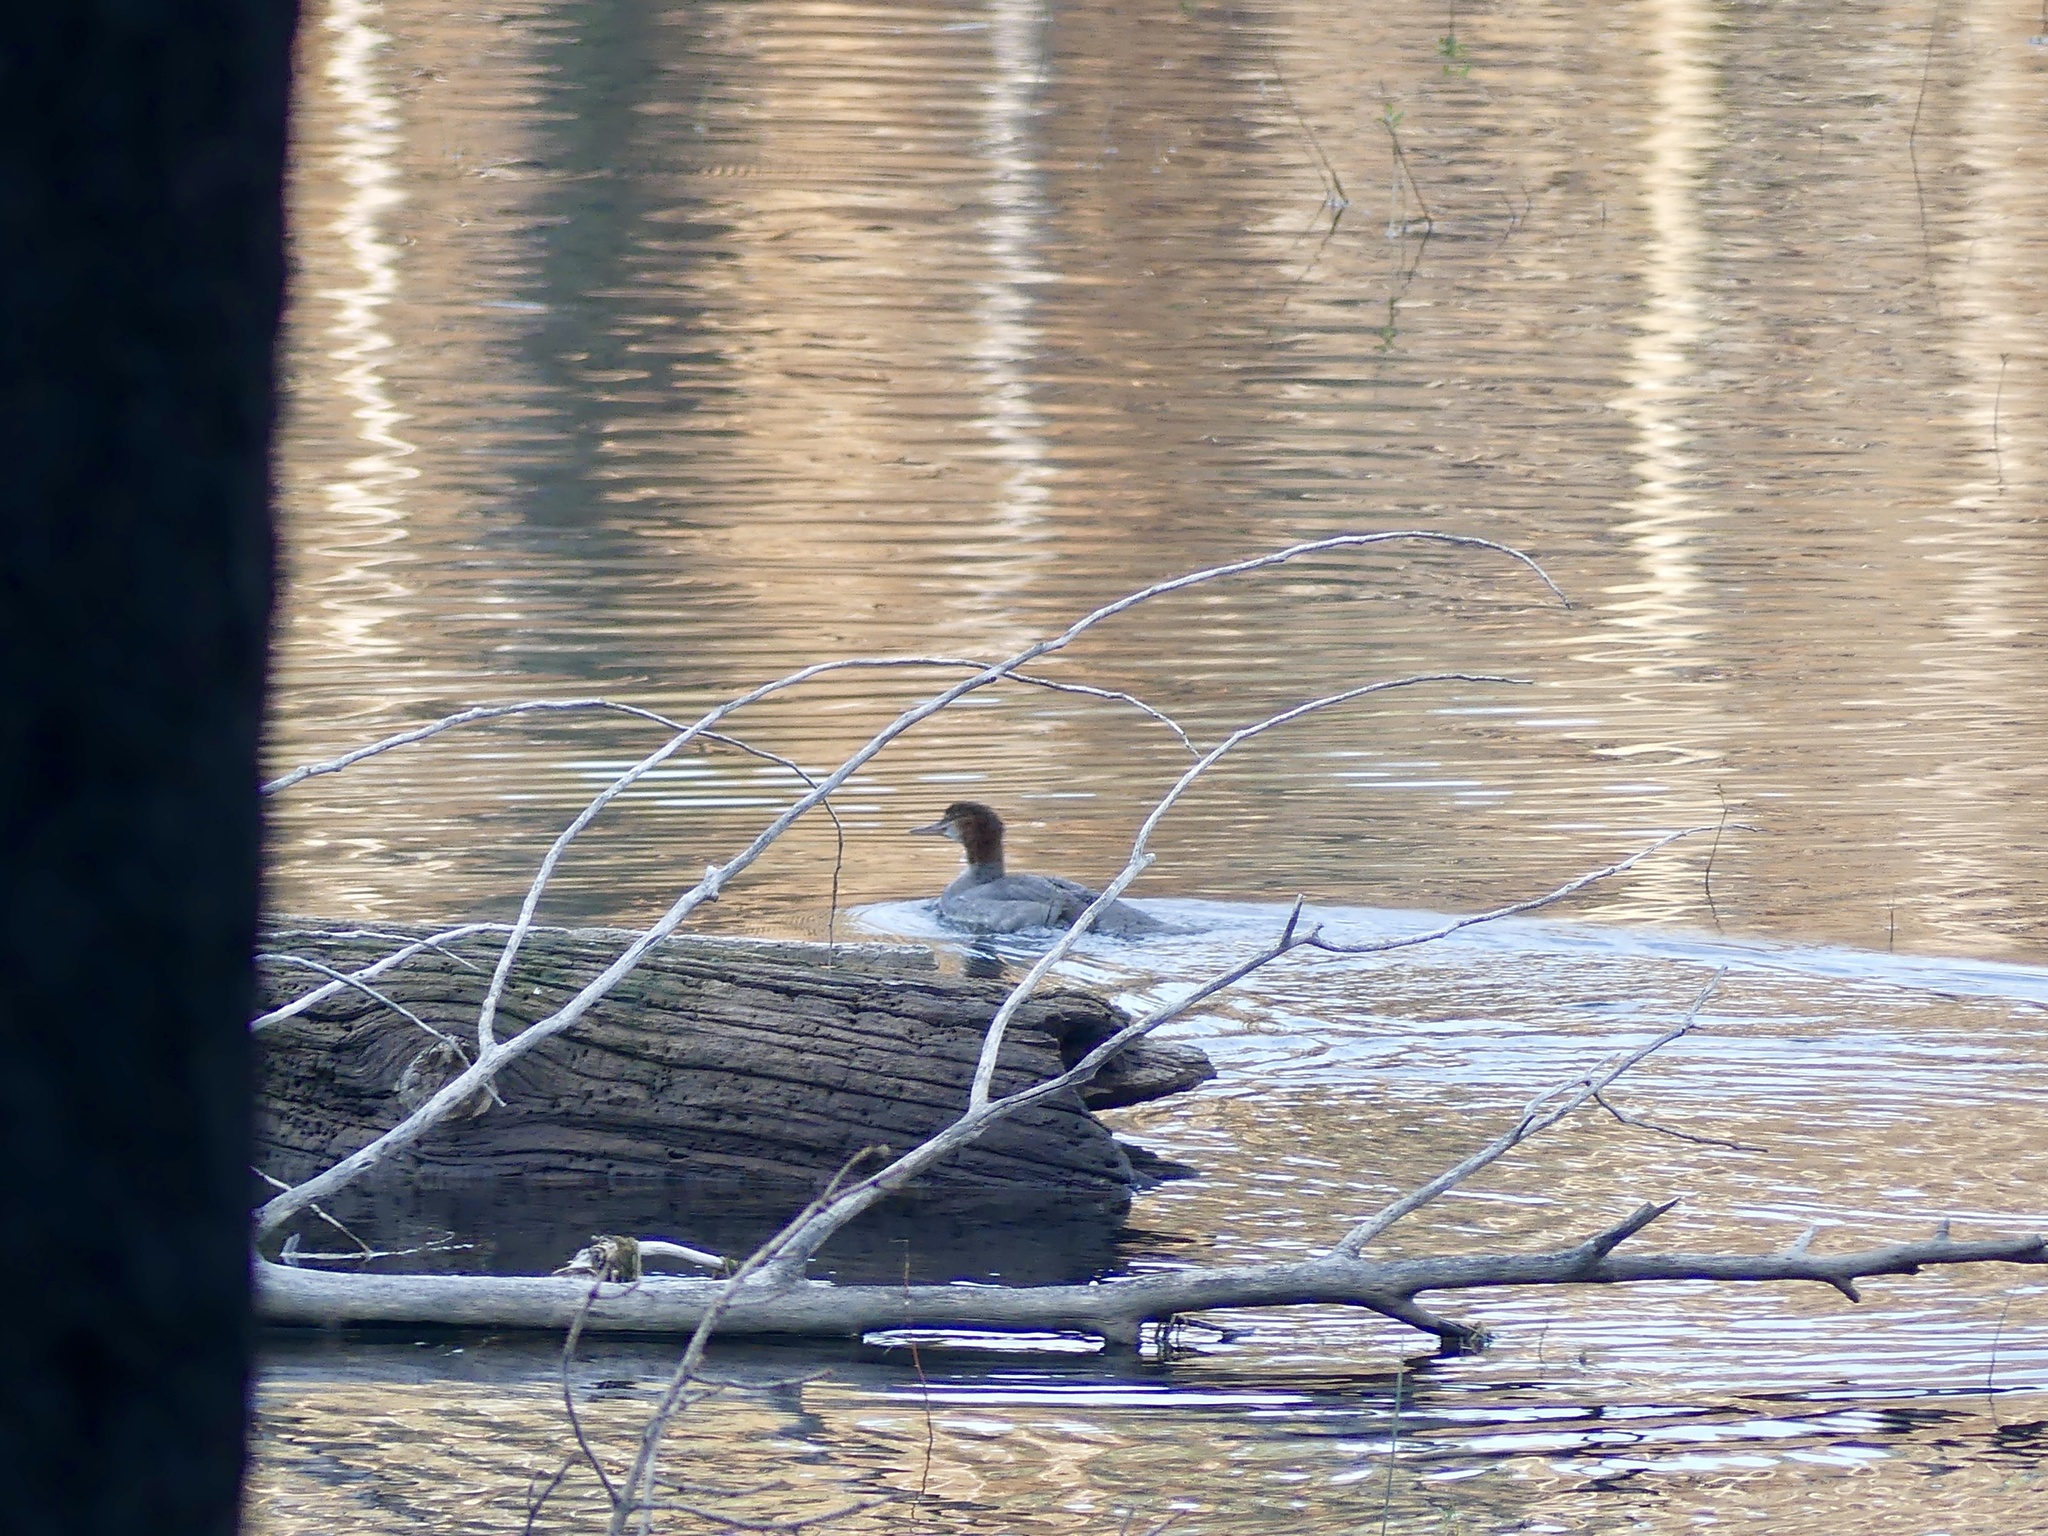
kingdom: Animalia
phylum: Chordata
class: Aves
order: Anseriformes
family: Anatidae
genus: Mergus
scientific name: Mergus merganser
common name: Common merganser
